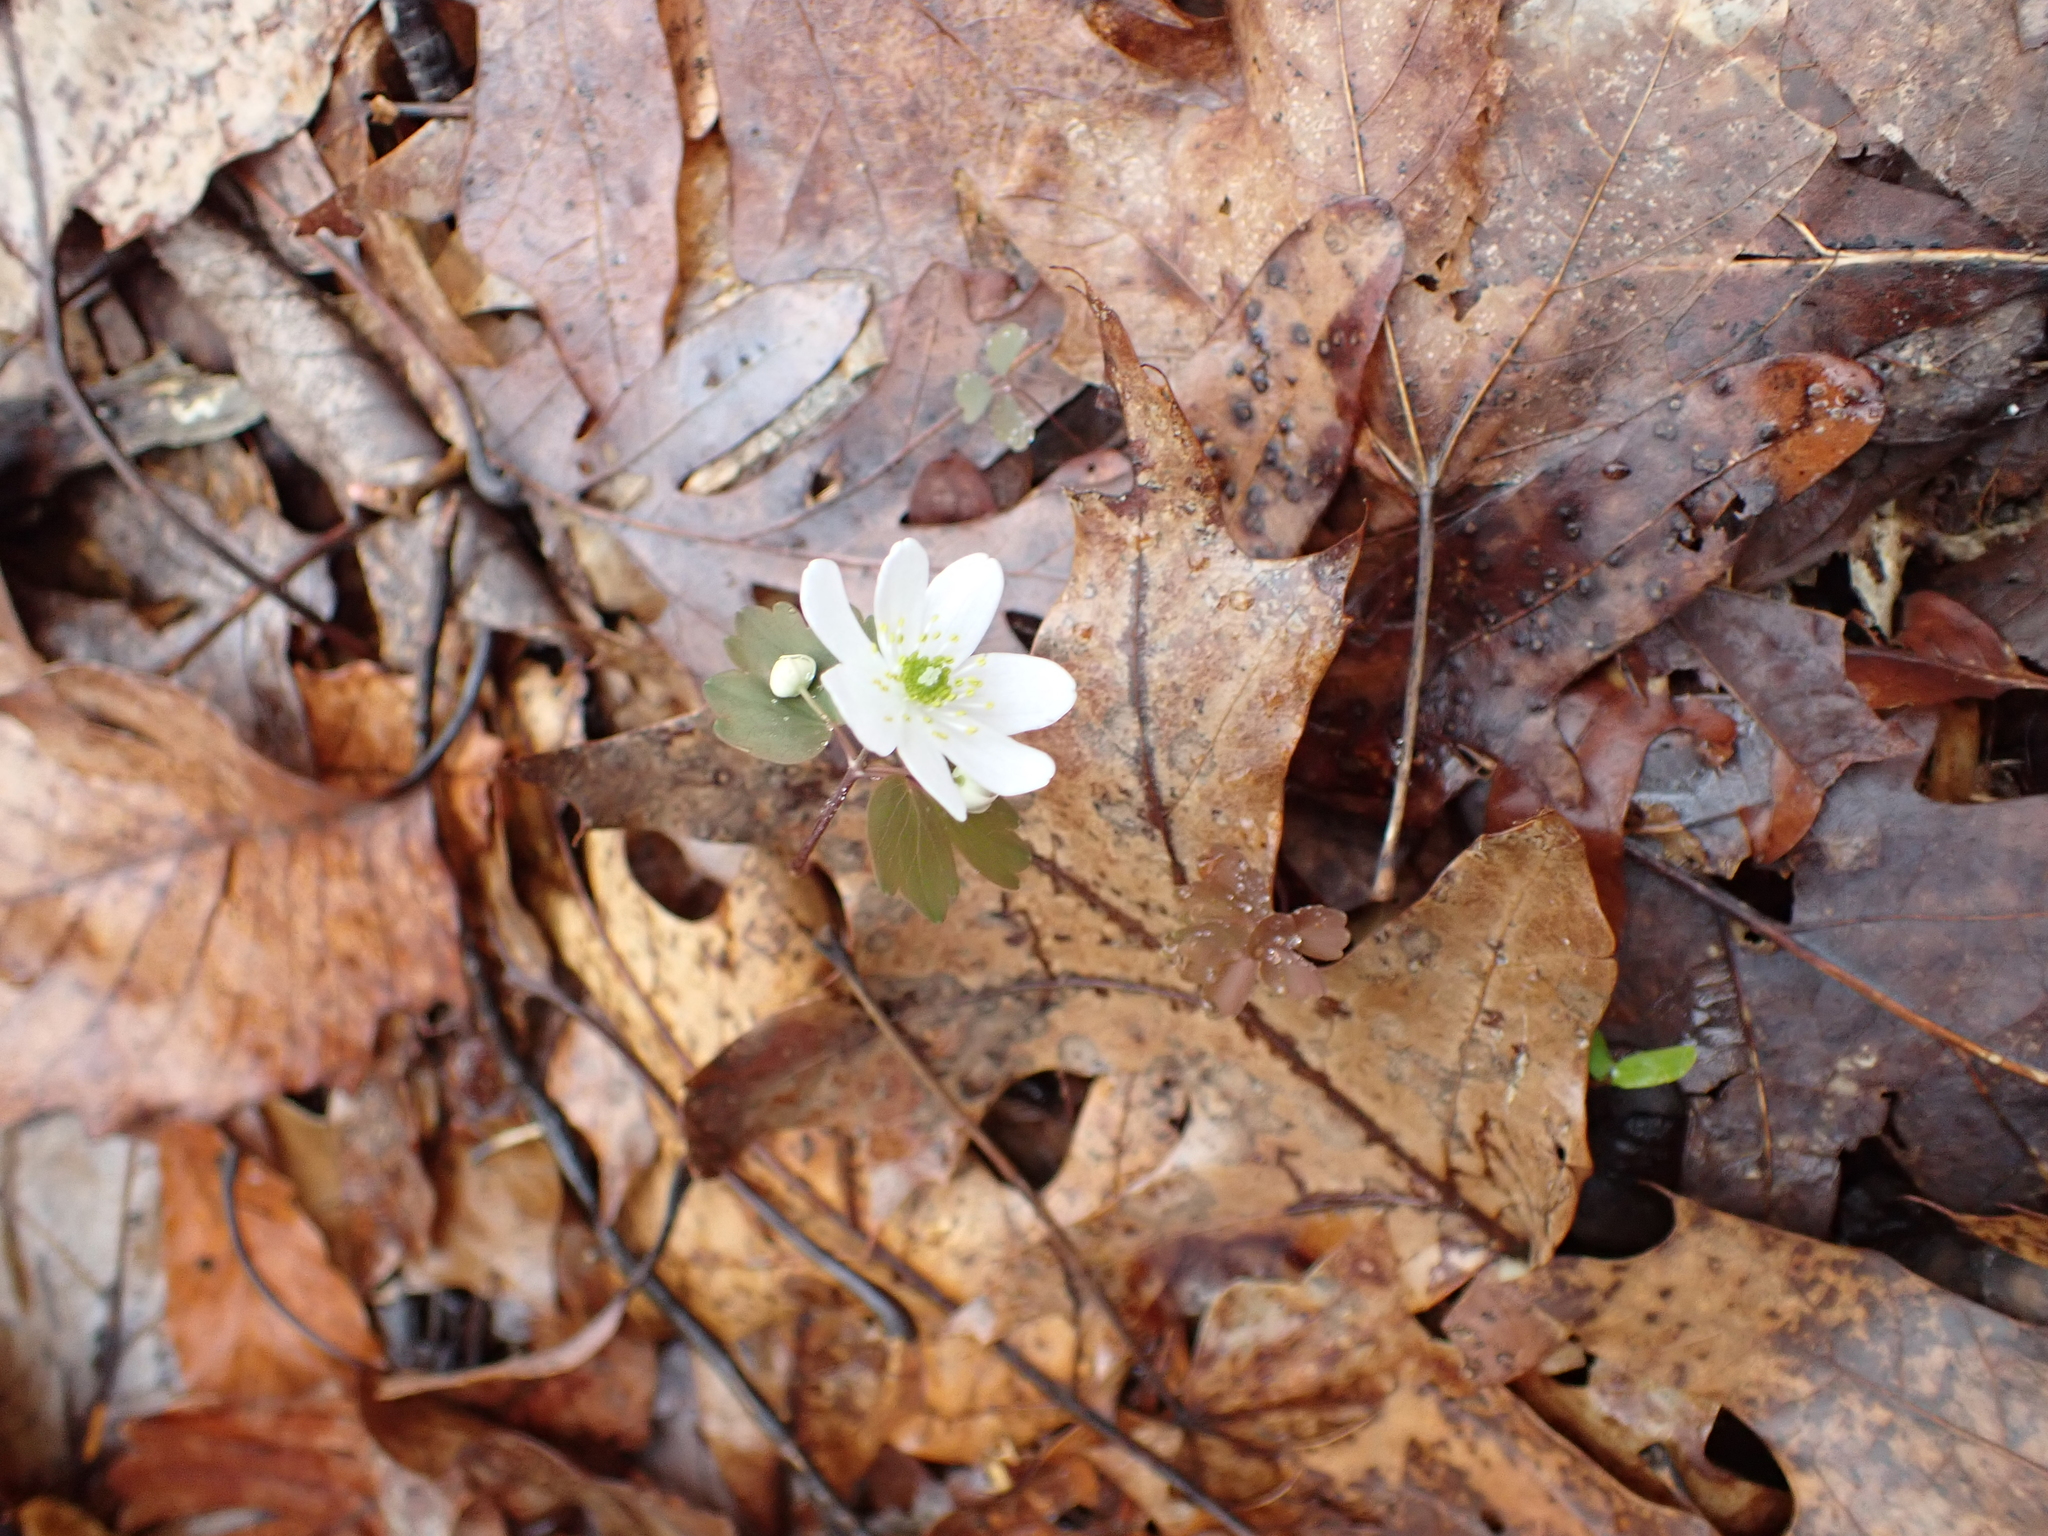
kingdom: Plantae
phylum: Tracheophyta
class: Magnoliopsida
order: Ranunculales
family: Ranunculaceae
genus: Thalictrum
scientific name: Thalictrum thalictroides
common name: Rue-anemone
